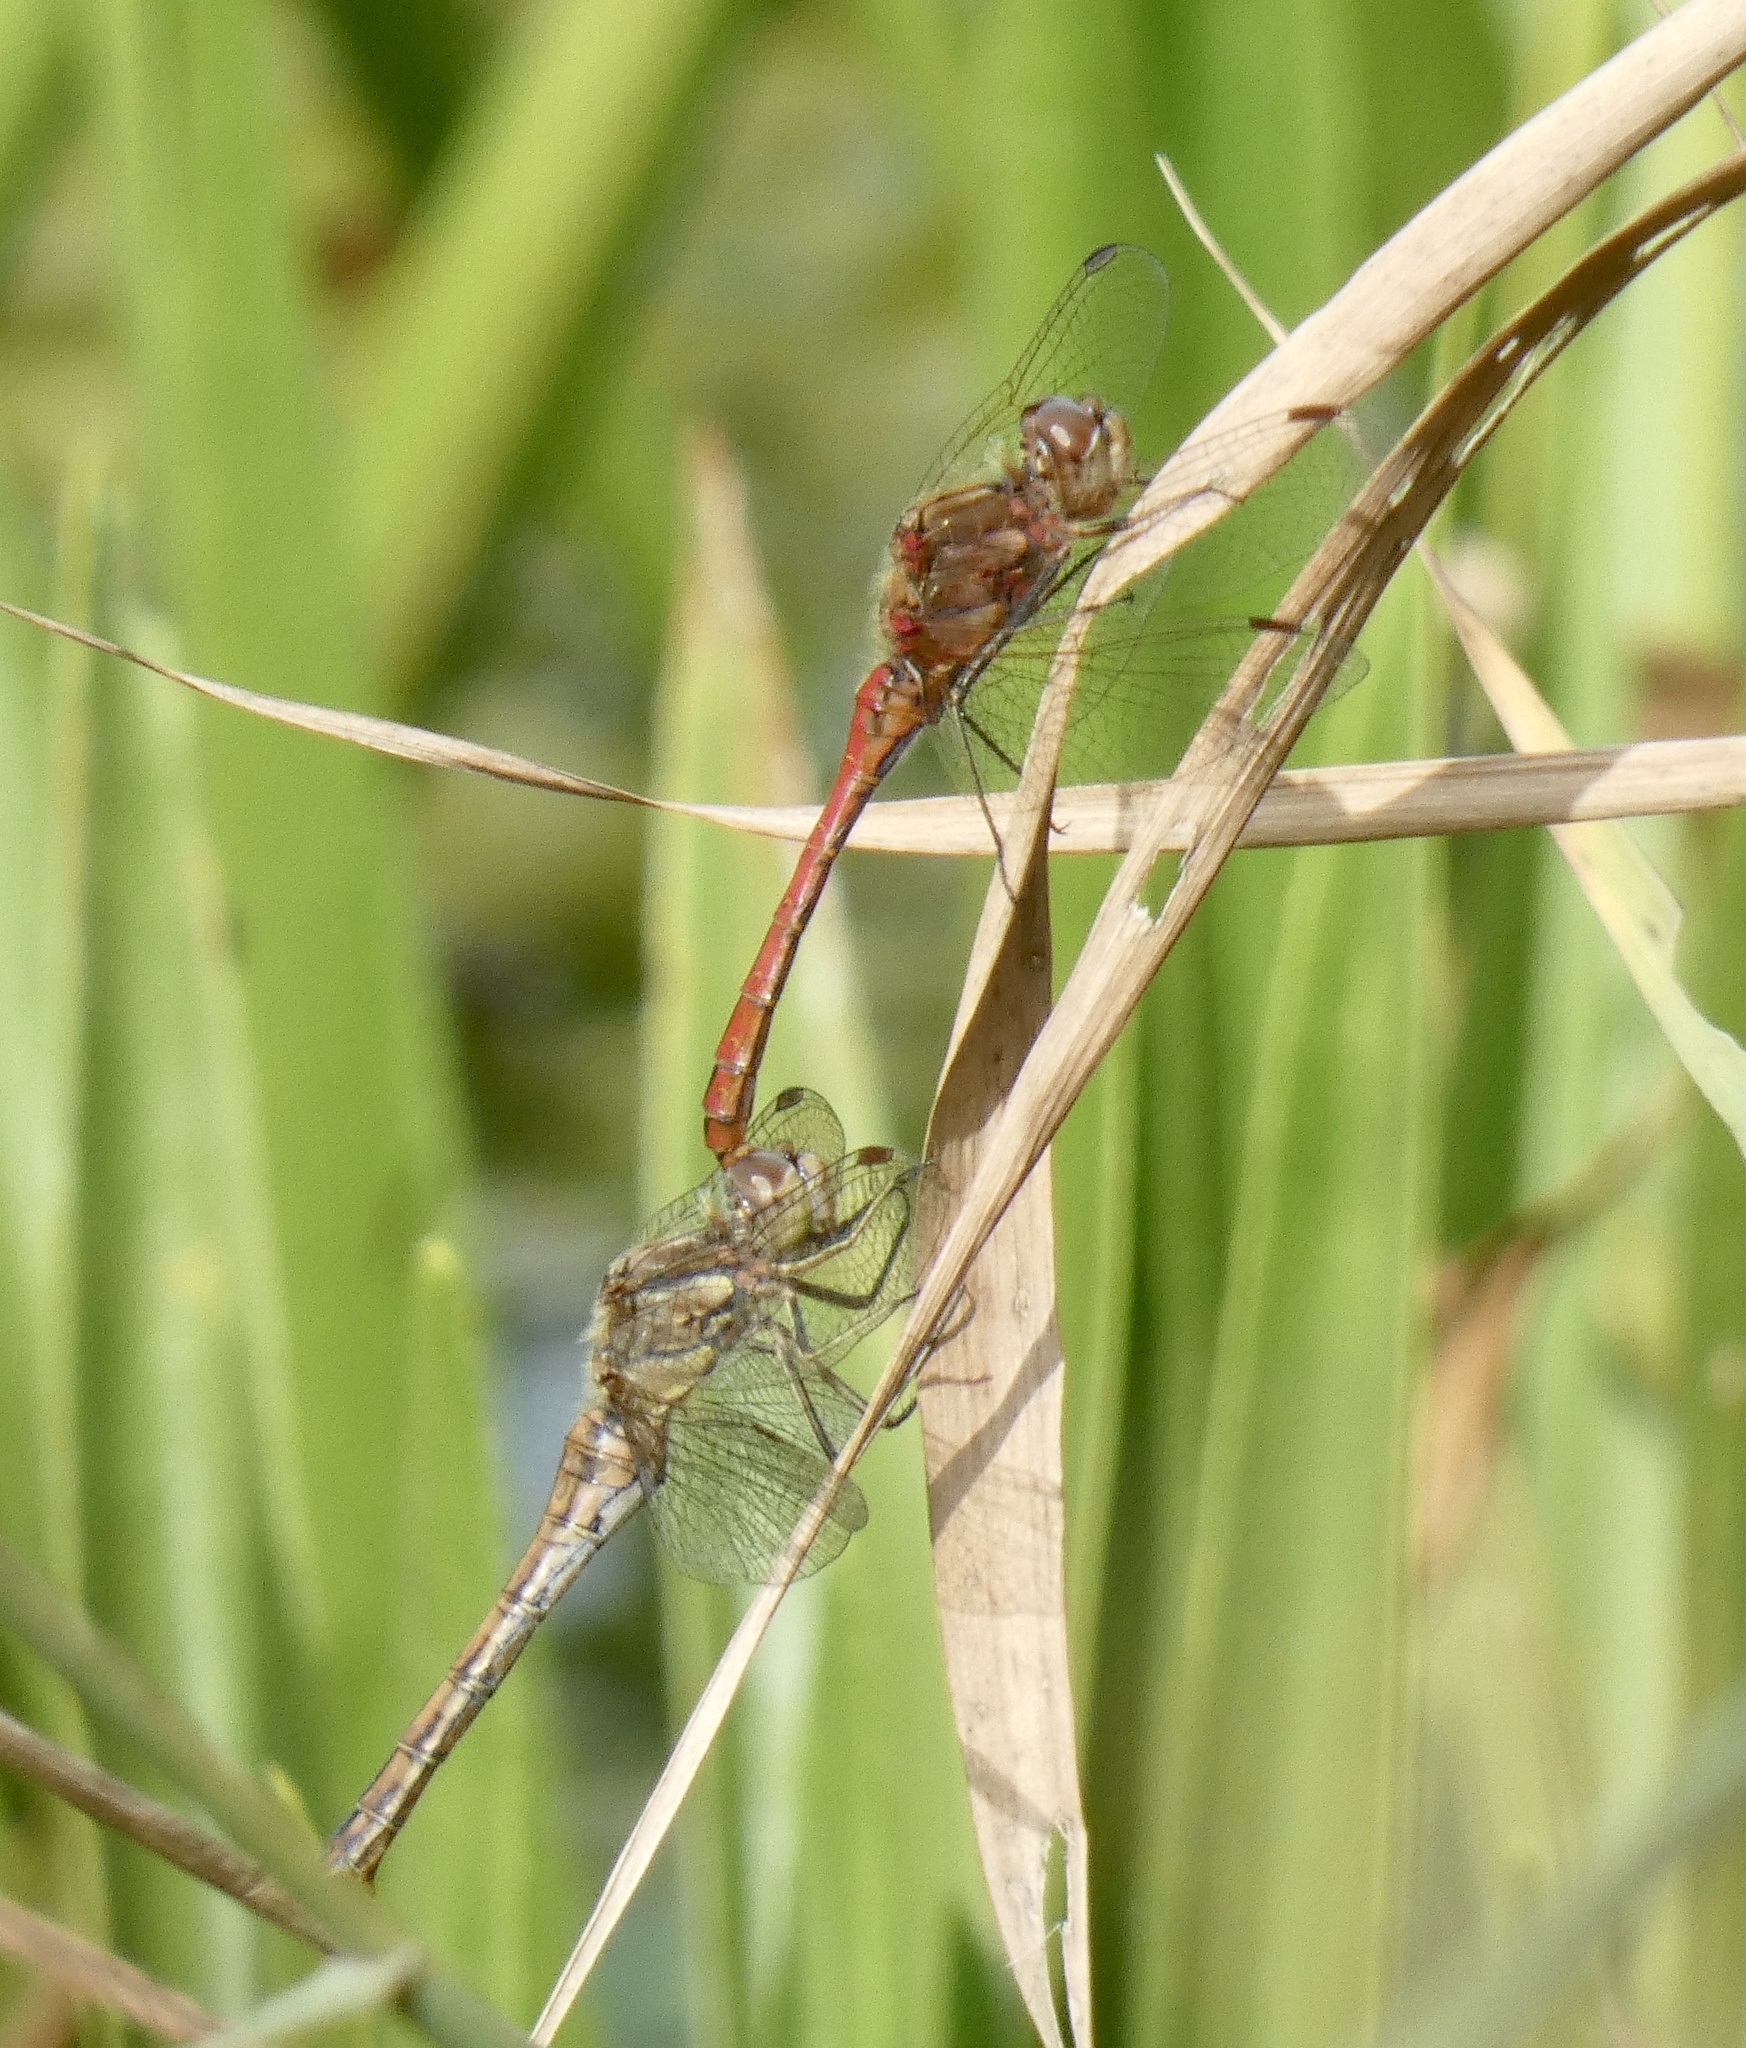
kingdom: Animalia
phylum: Arthropoda
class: Insecta
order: Odonata
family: Libellulidae
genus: Sympetrum
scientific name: Sympetrum vulgatum
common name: Vagrant darter
